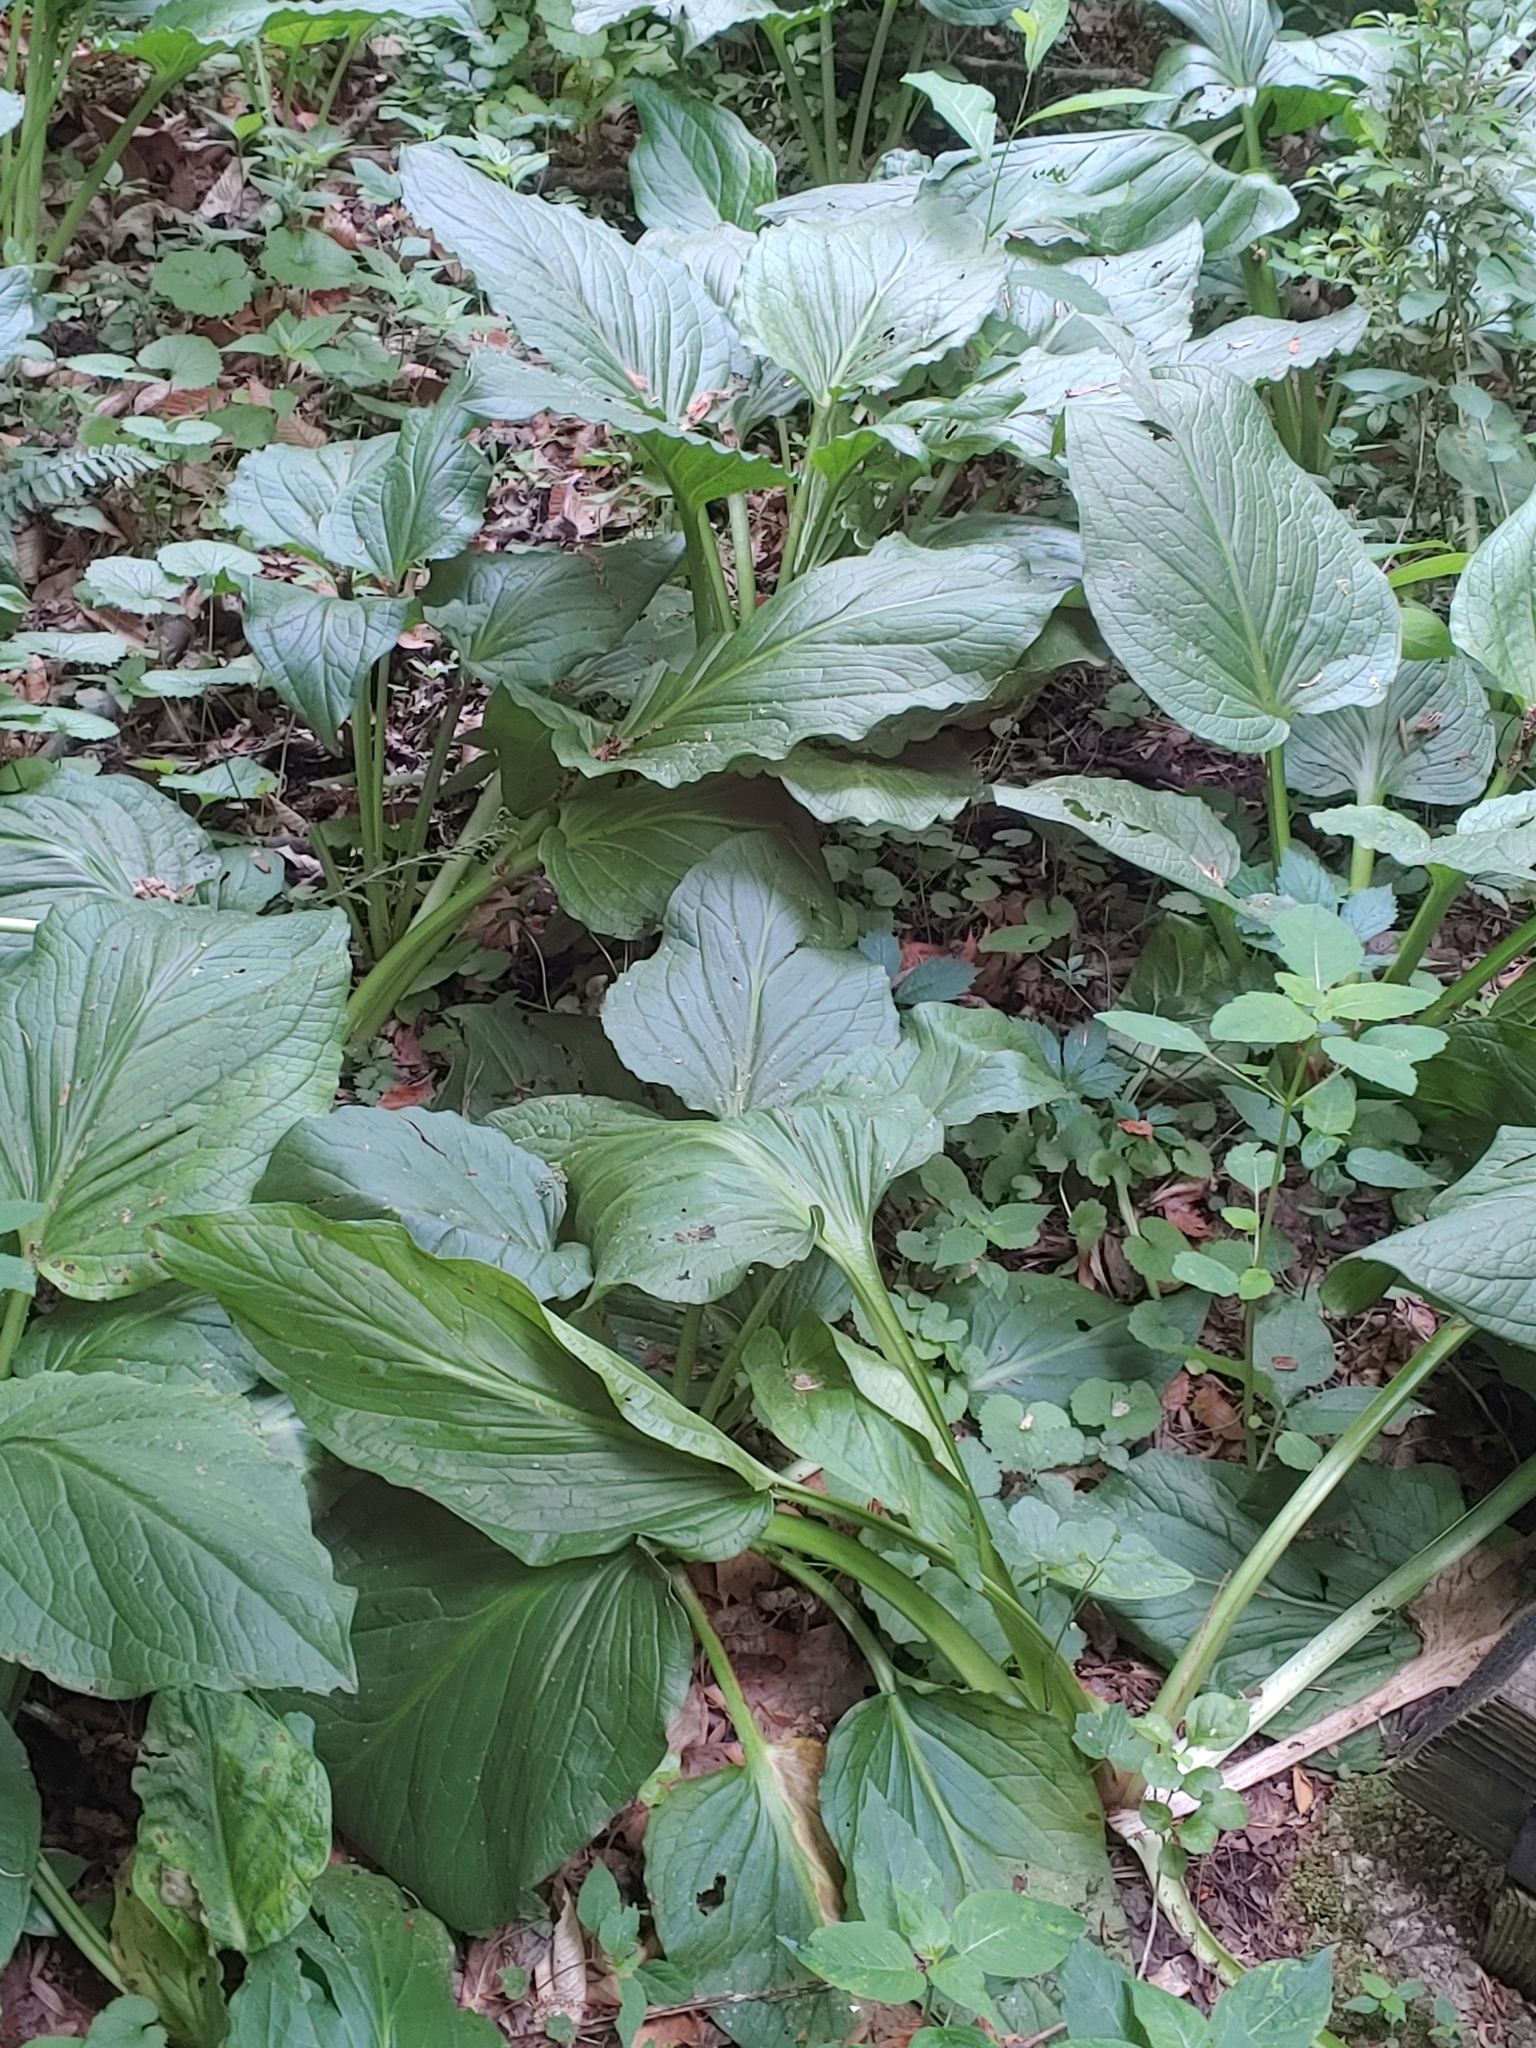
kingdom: Plantae
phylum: Tracheophyta
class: Liliopsida
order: Alismatales
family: Araceae
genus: Symplocarpus
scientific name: Symplocarpus foetidus
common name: Eastern skunk cabbage
